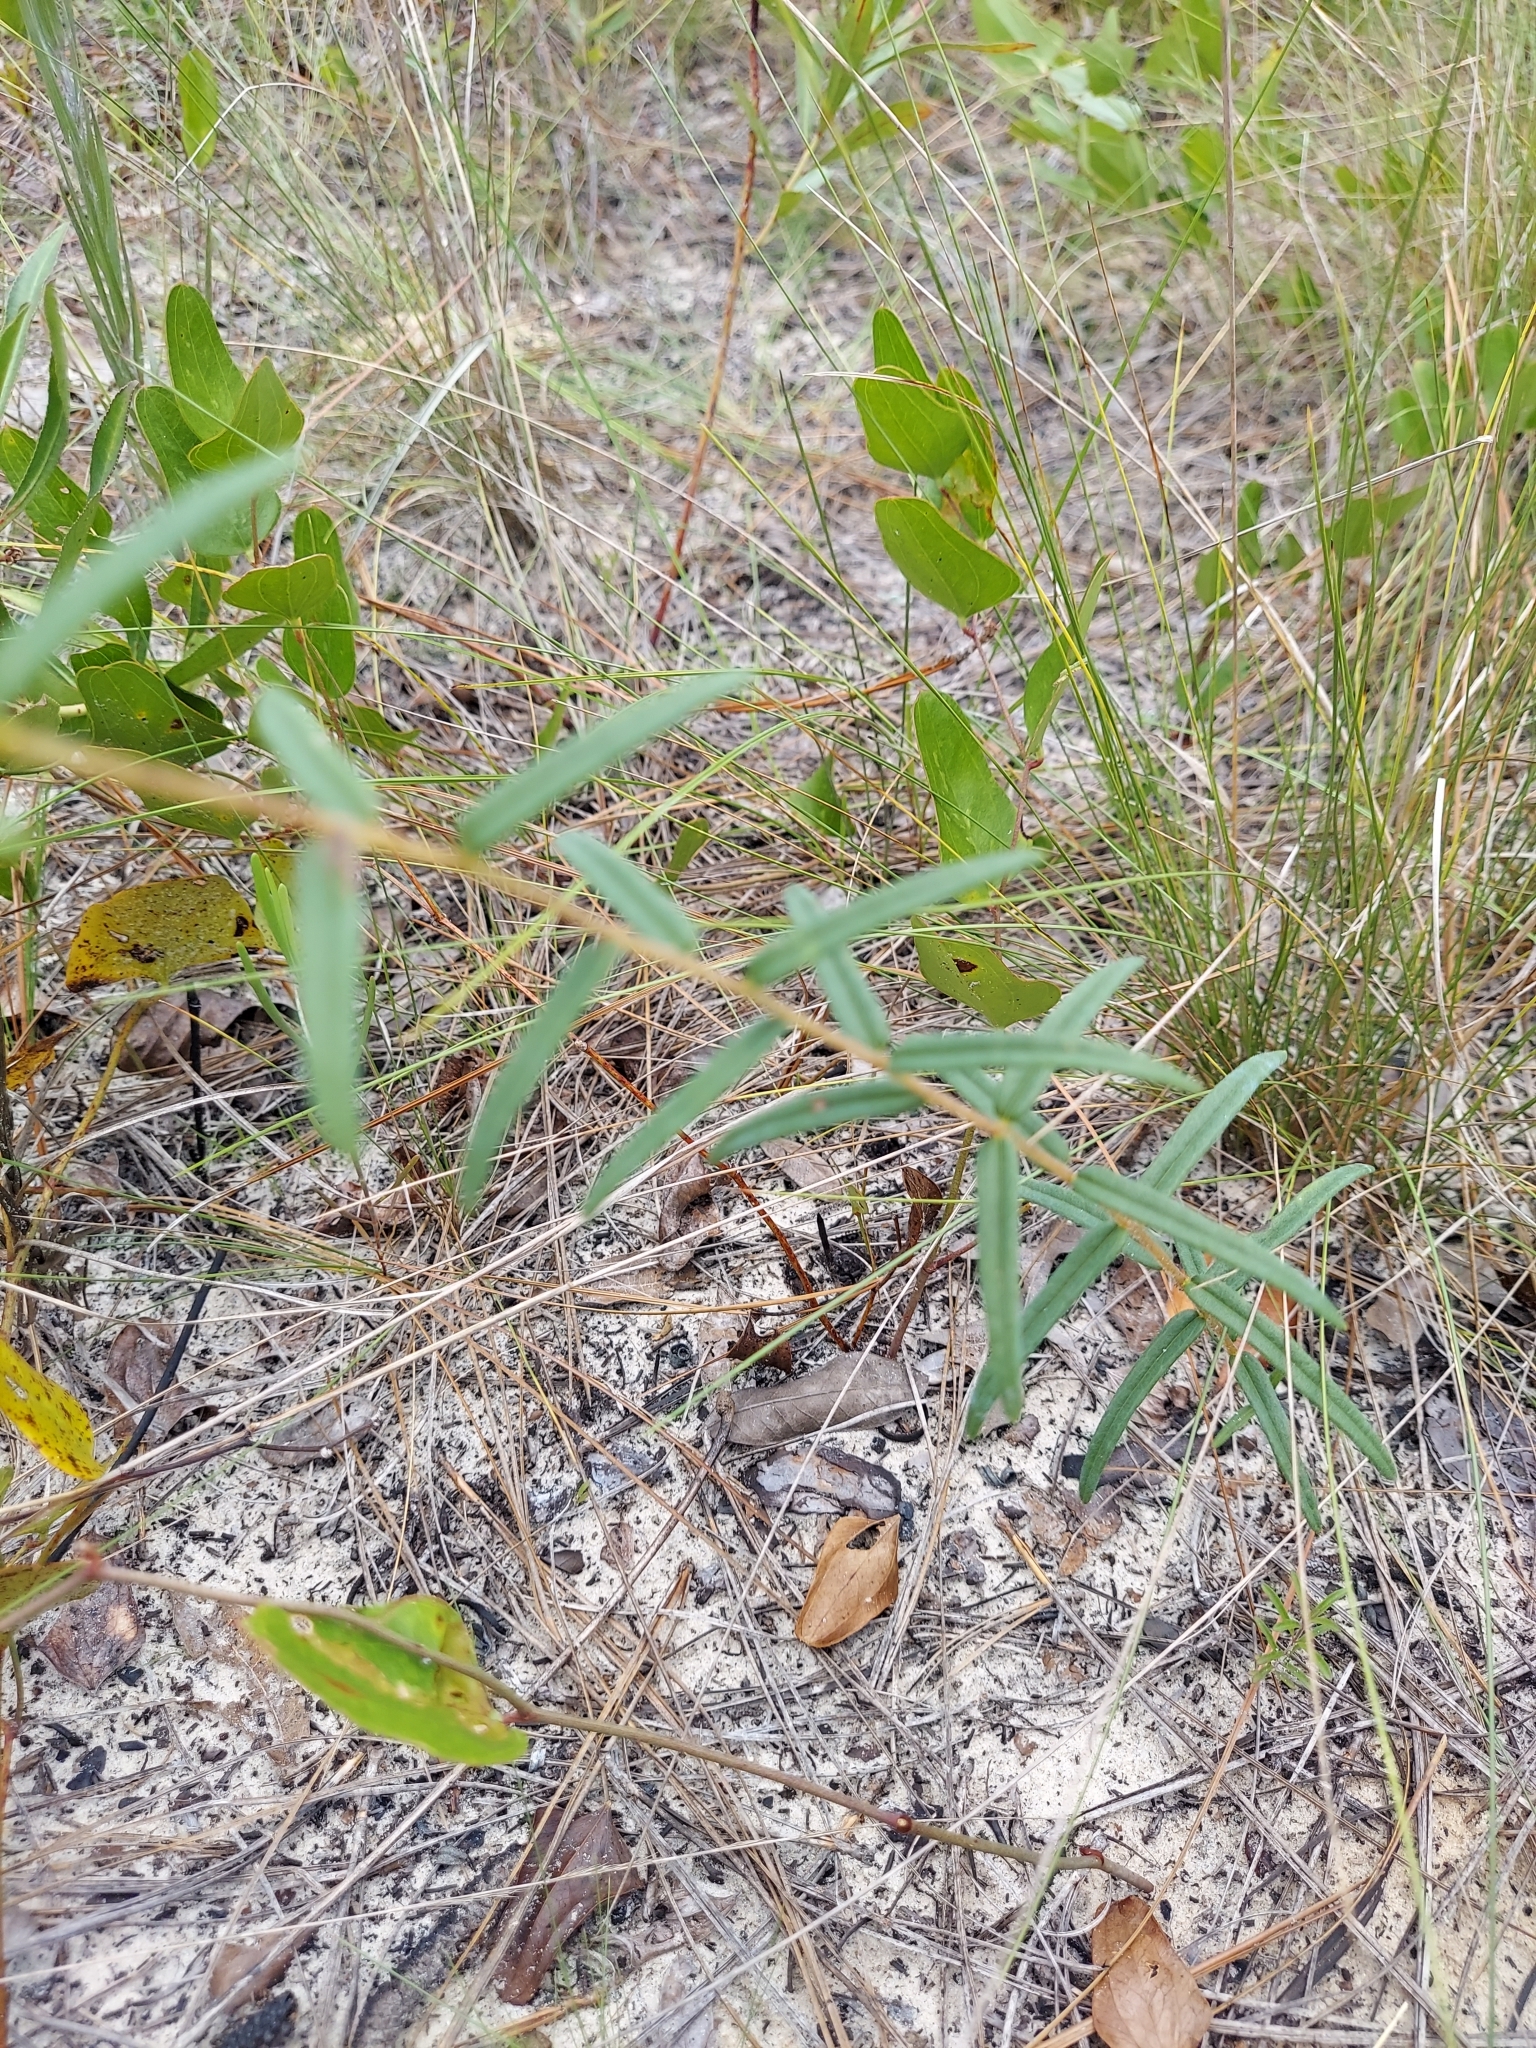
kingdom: Plantae
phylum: Tracheophyta
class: Magnoliopsida
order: Asterales
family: Asteraceae
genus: Phoebanthus
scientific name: Phoebanthus grandiflora
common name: Florida false sunflower
